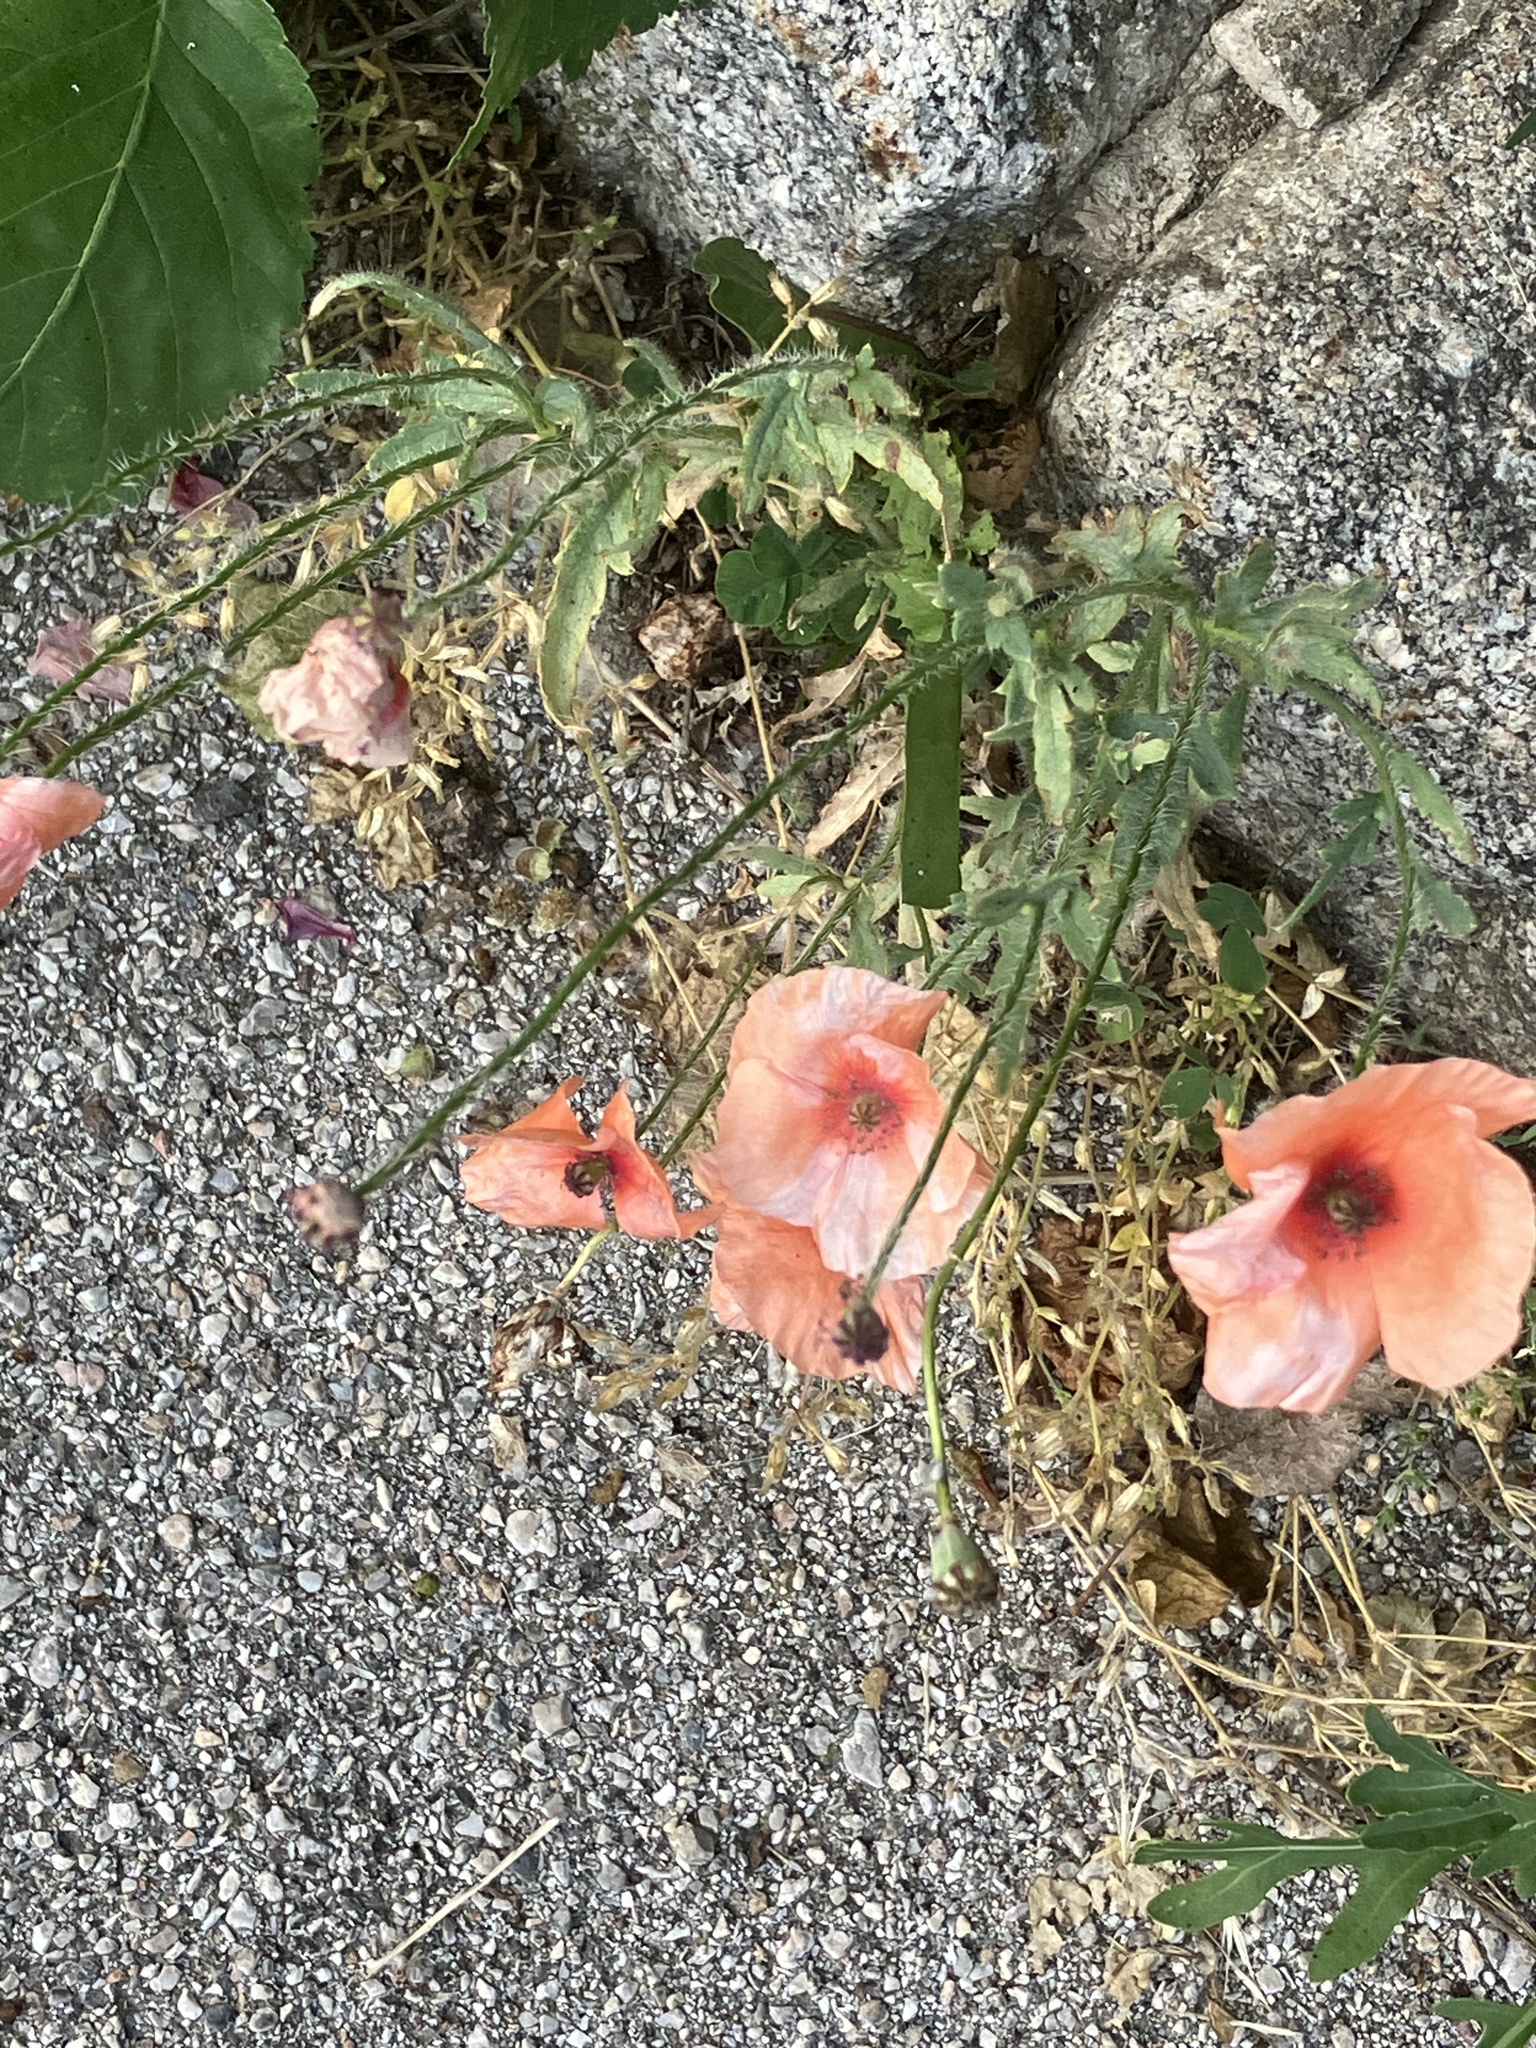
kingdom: Plantae
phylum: Tracheophyta
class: Magnoliopsida
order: Ranunculales
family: Papaveraceae
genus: Papaver
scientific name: Papaver rhoeas
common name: Corn poppy
